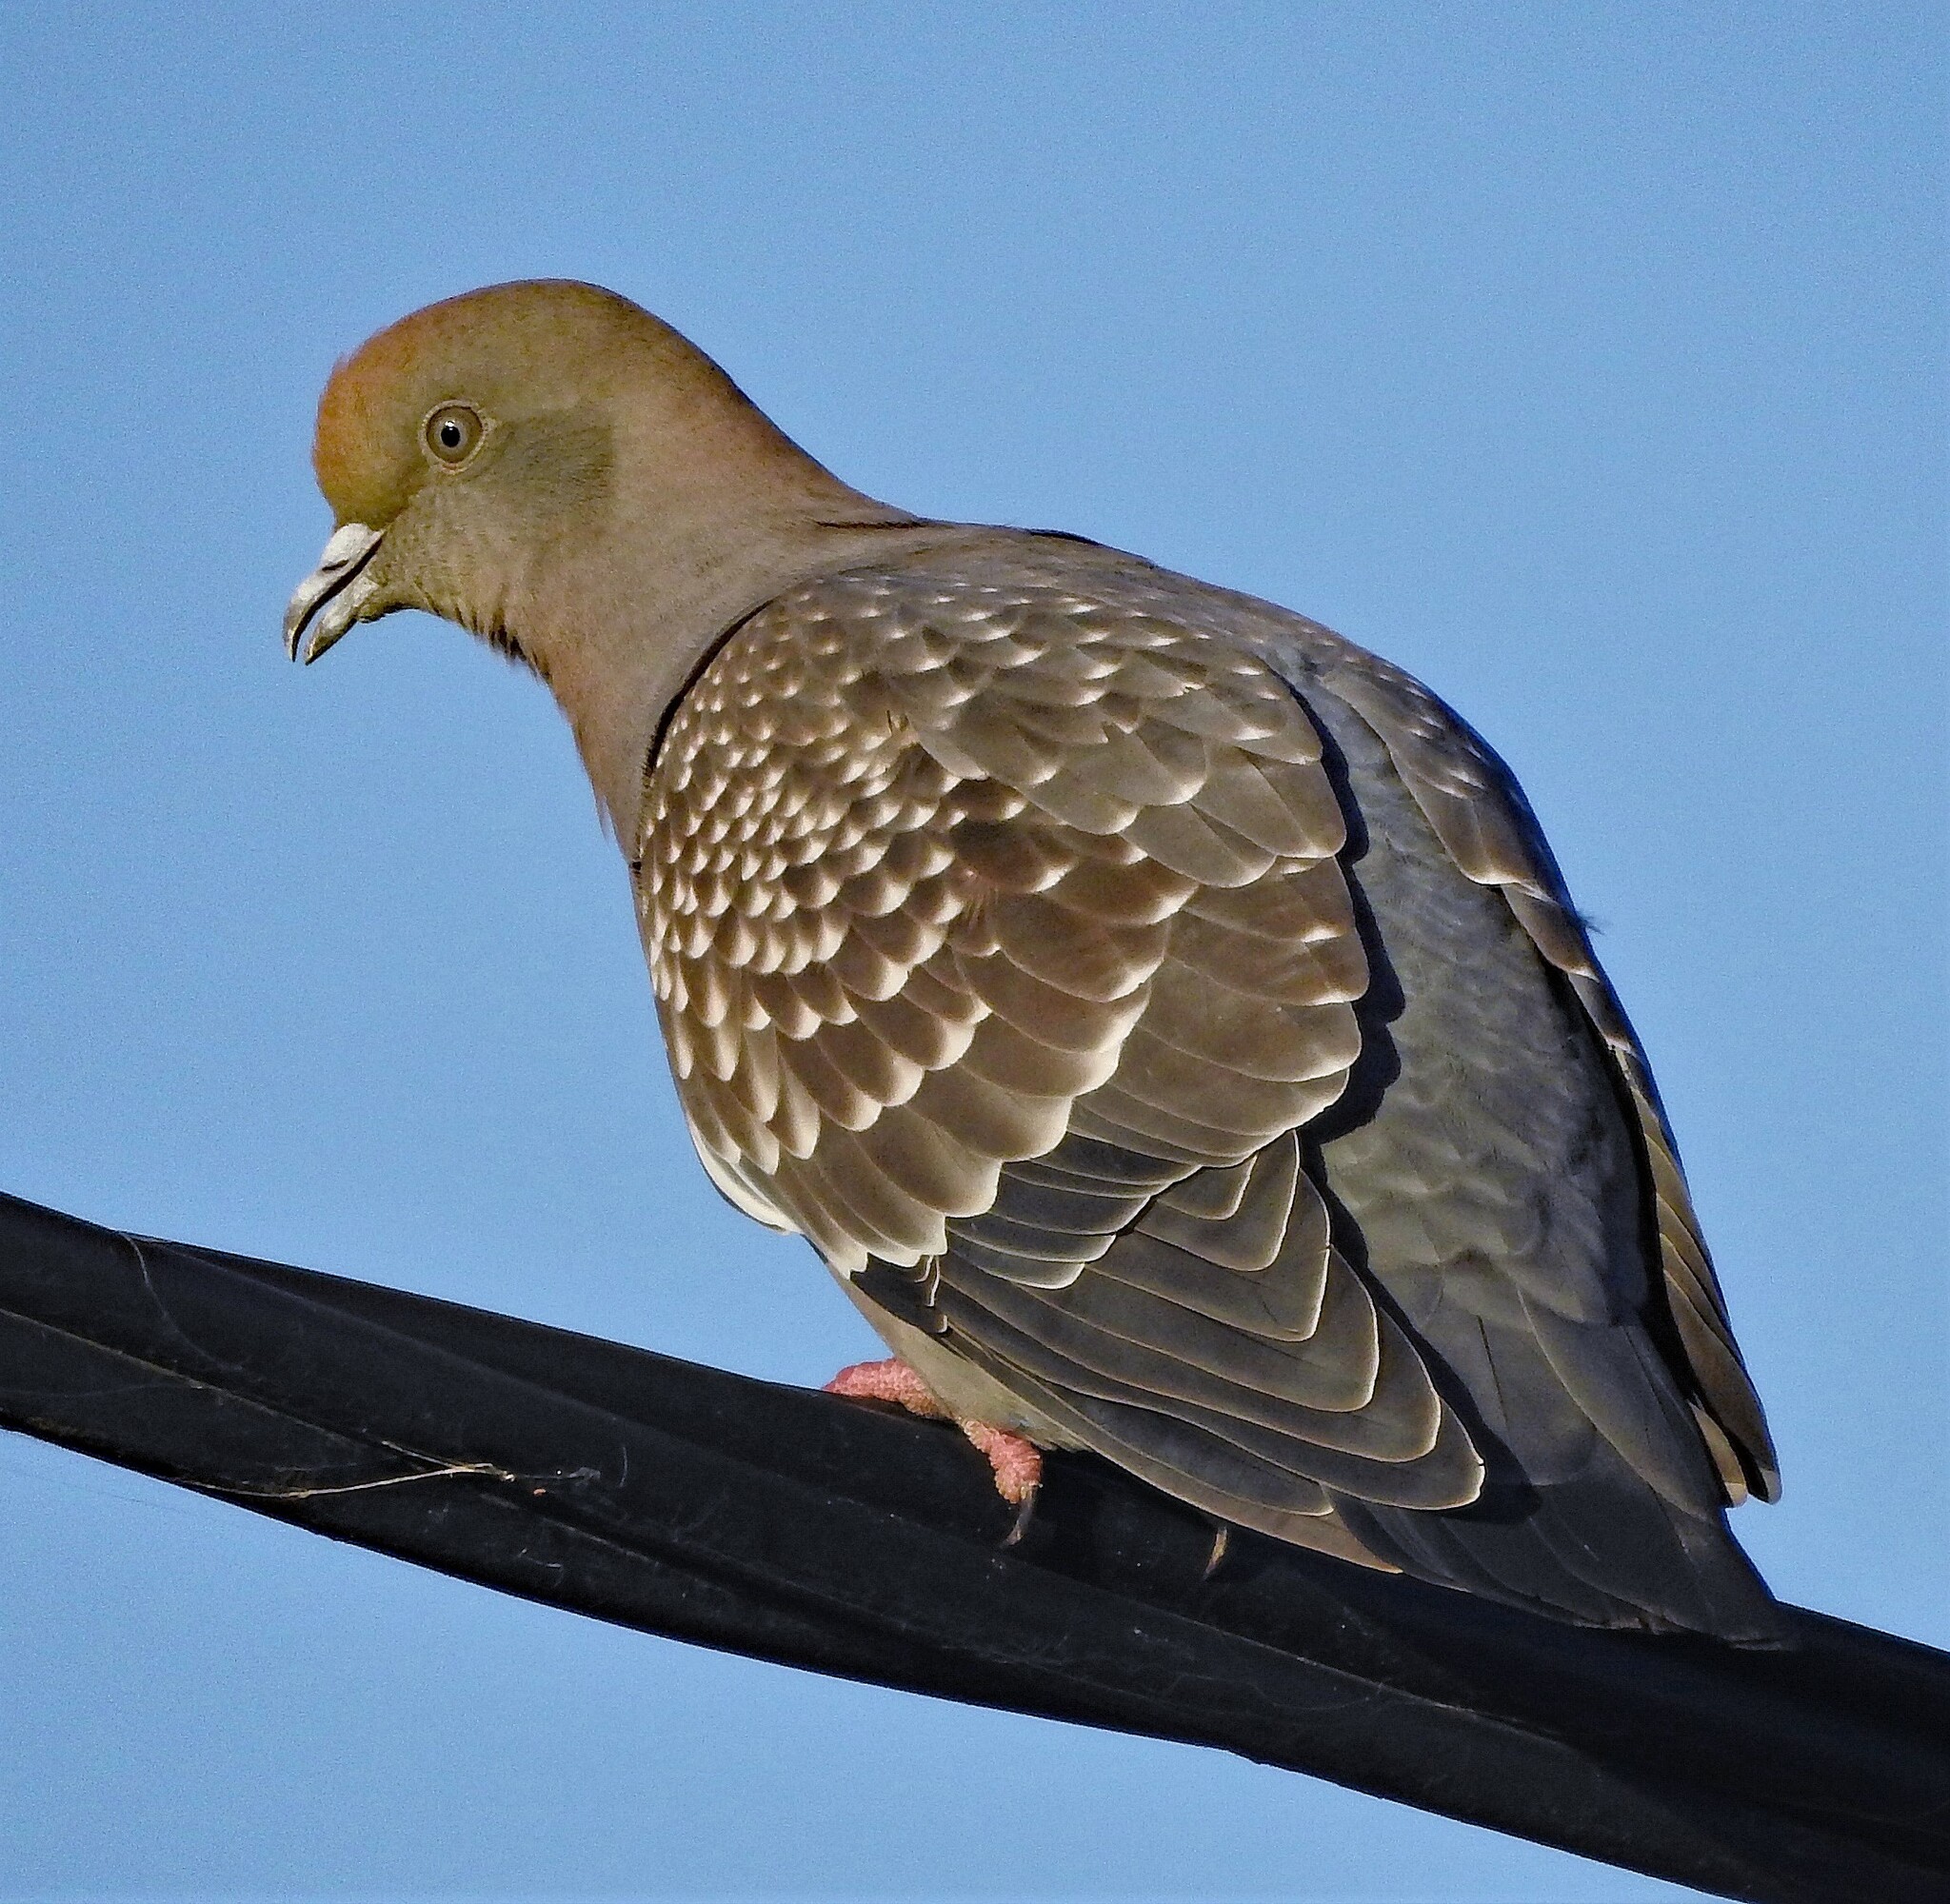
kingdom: Animalia
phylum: Chordata
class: Aves
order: Columbiformes
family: Columbidae
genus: Patagioenas
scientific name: Patagioenas maculosa
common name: Spot-winged pigeon
